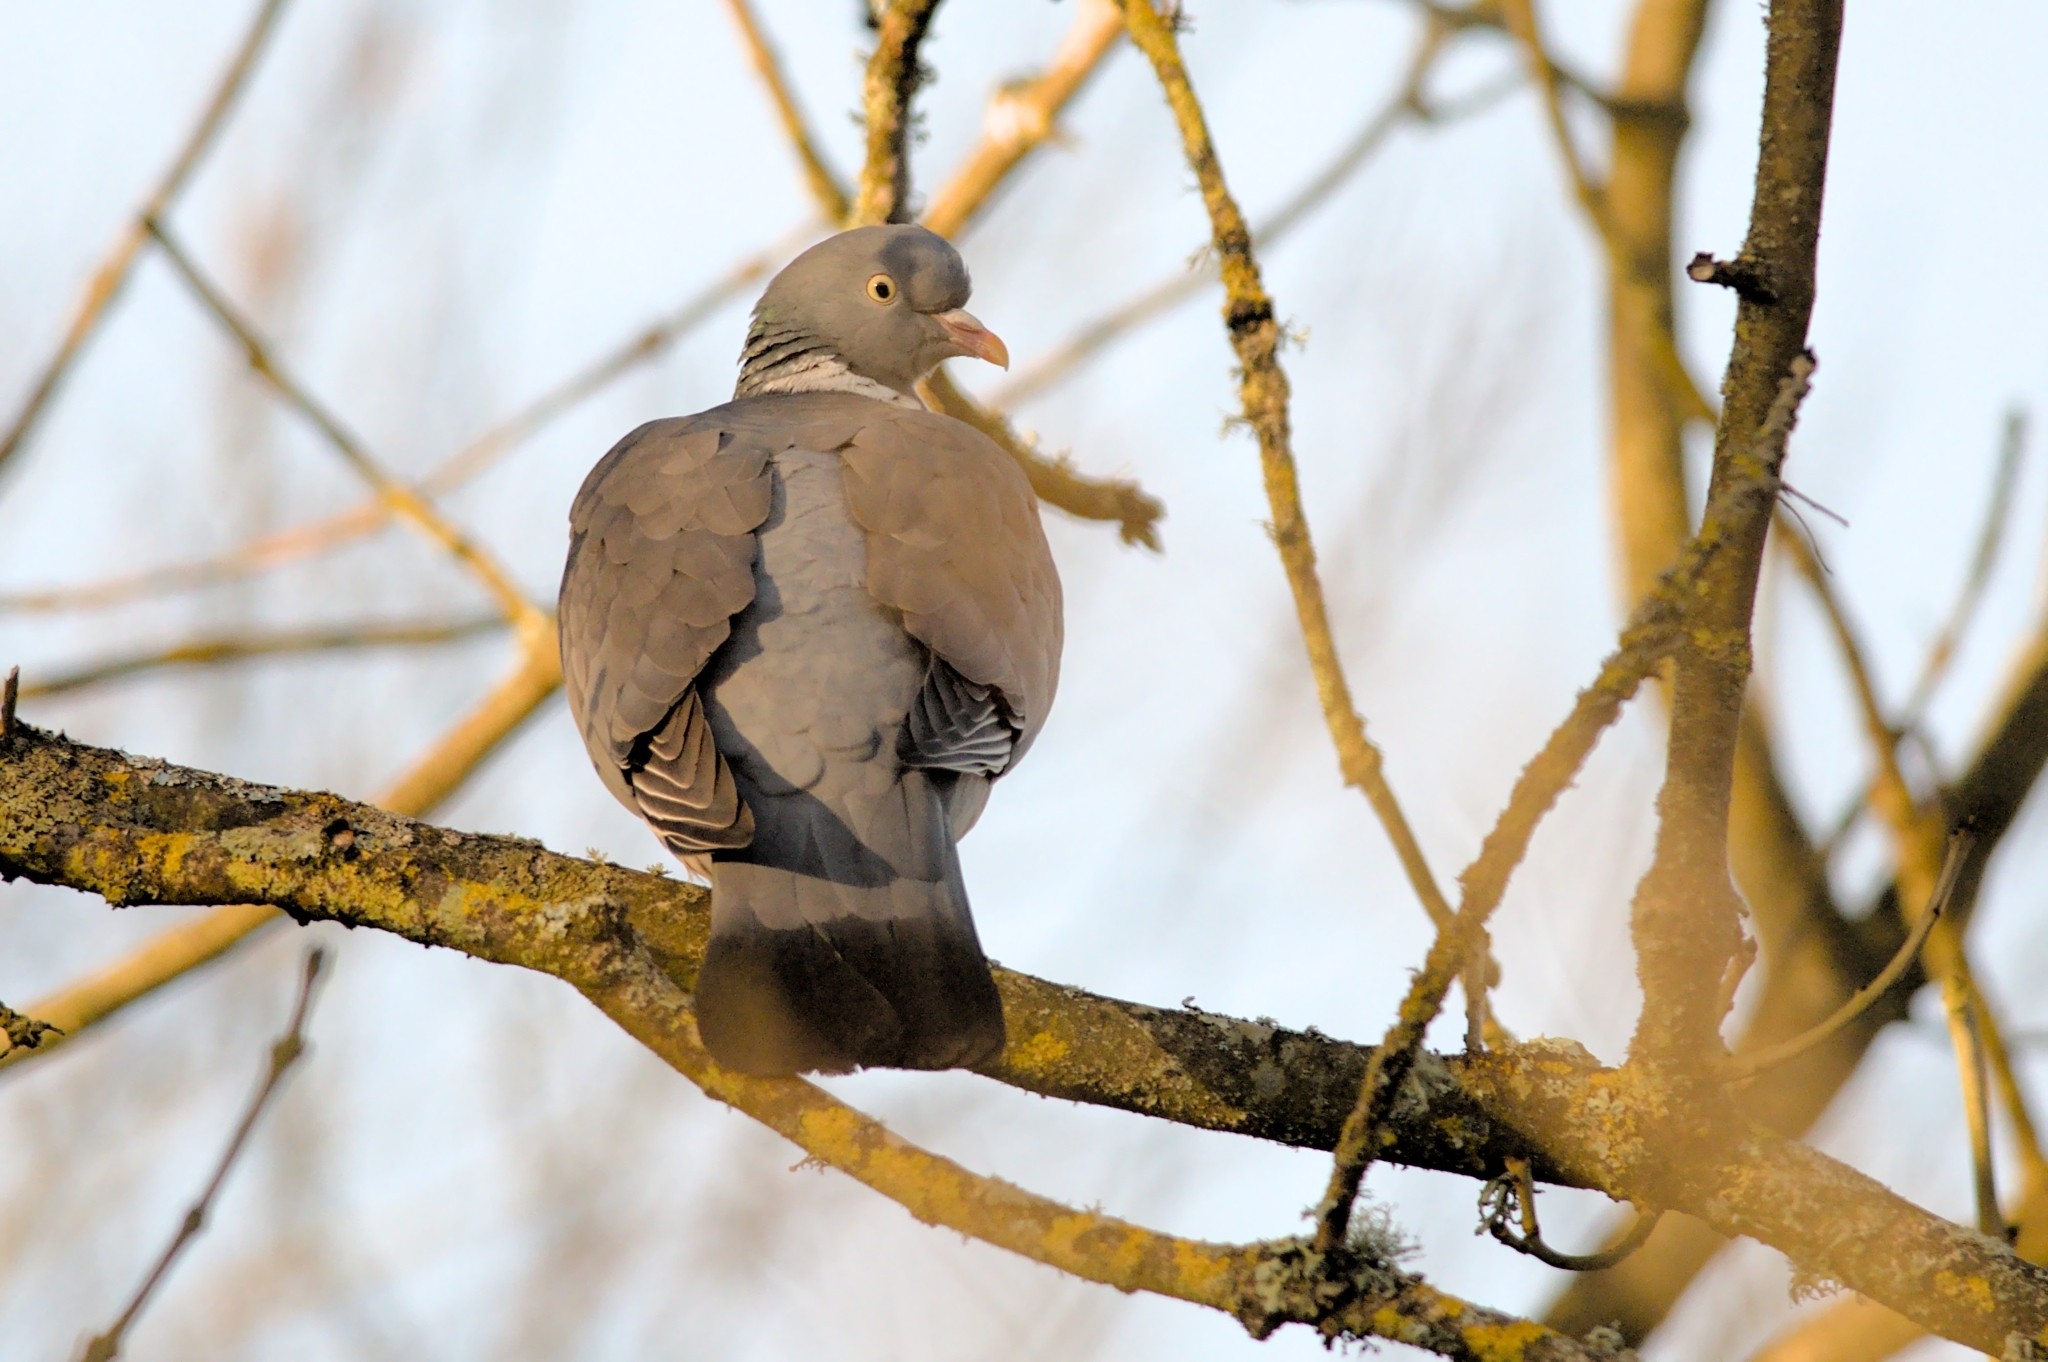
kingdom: Animalia
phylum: Chordata
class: Aves
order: Columbiformes
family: Columbidae
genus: Columba
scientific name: Columba palumbus
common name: Common wood pigeon
